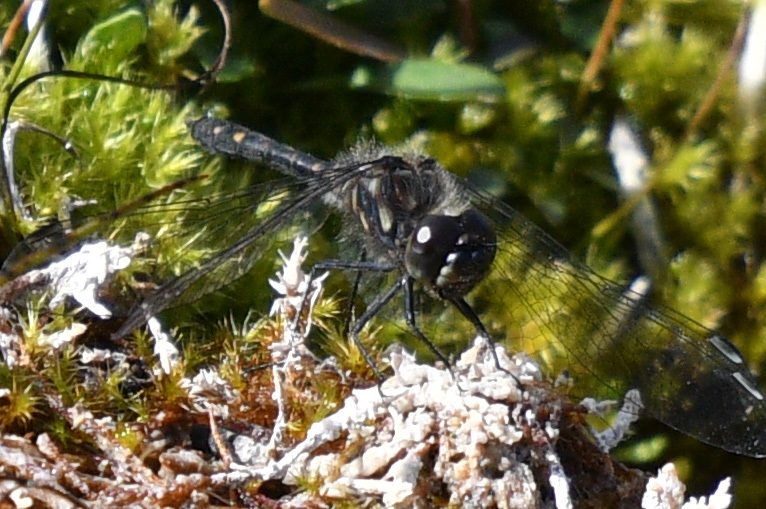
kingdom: Animalia
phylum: Arthropoda
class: Insecta
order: Odonata
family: Libellulidae
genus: Sympetrum
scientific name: Sympetrum danae
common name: Black darter
